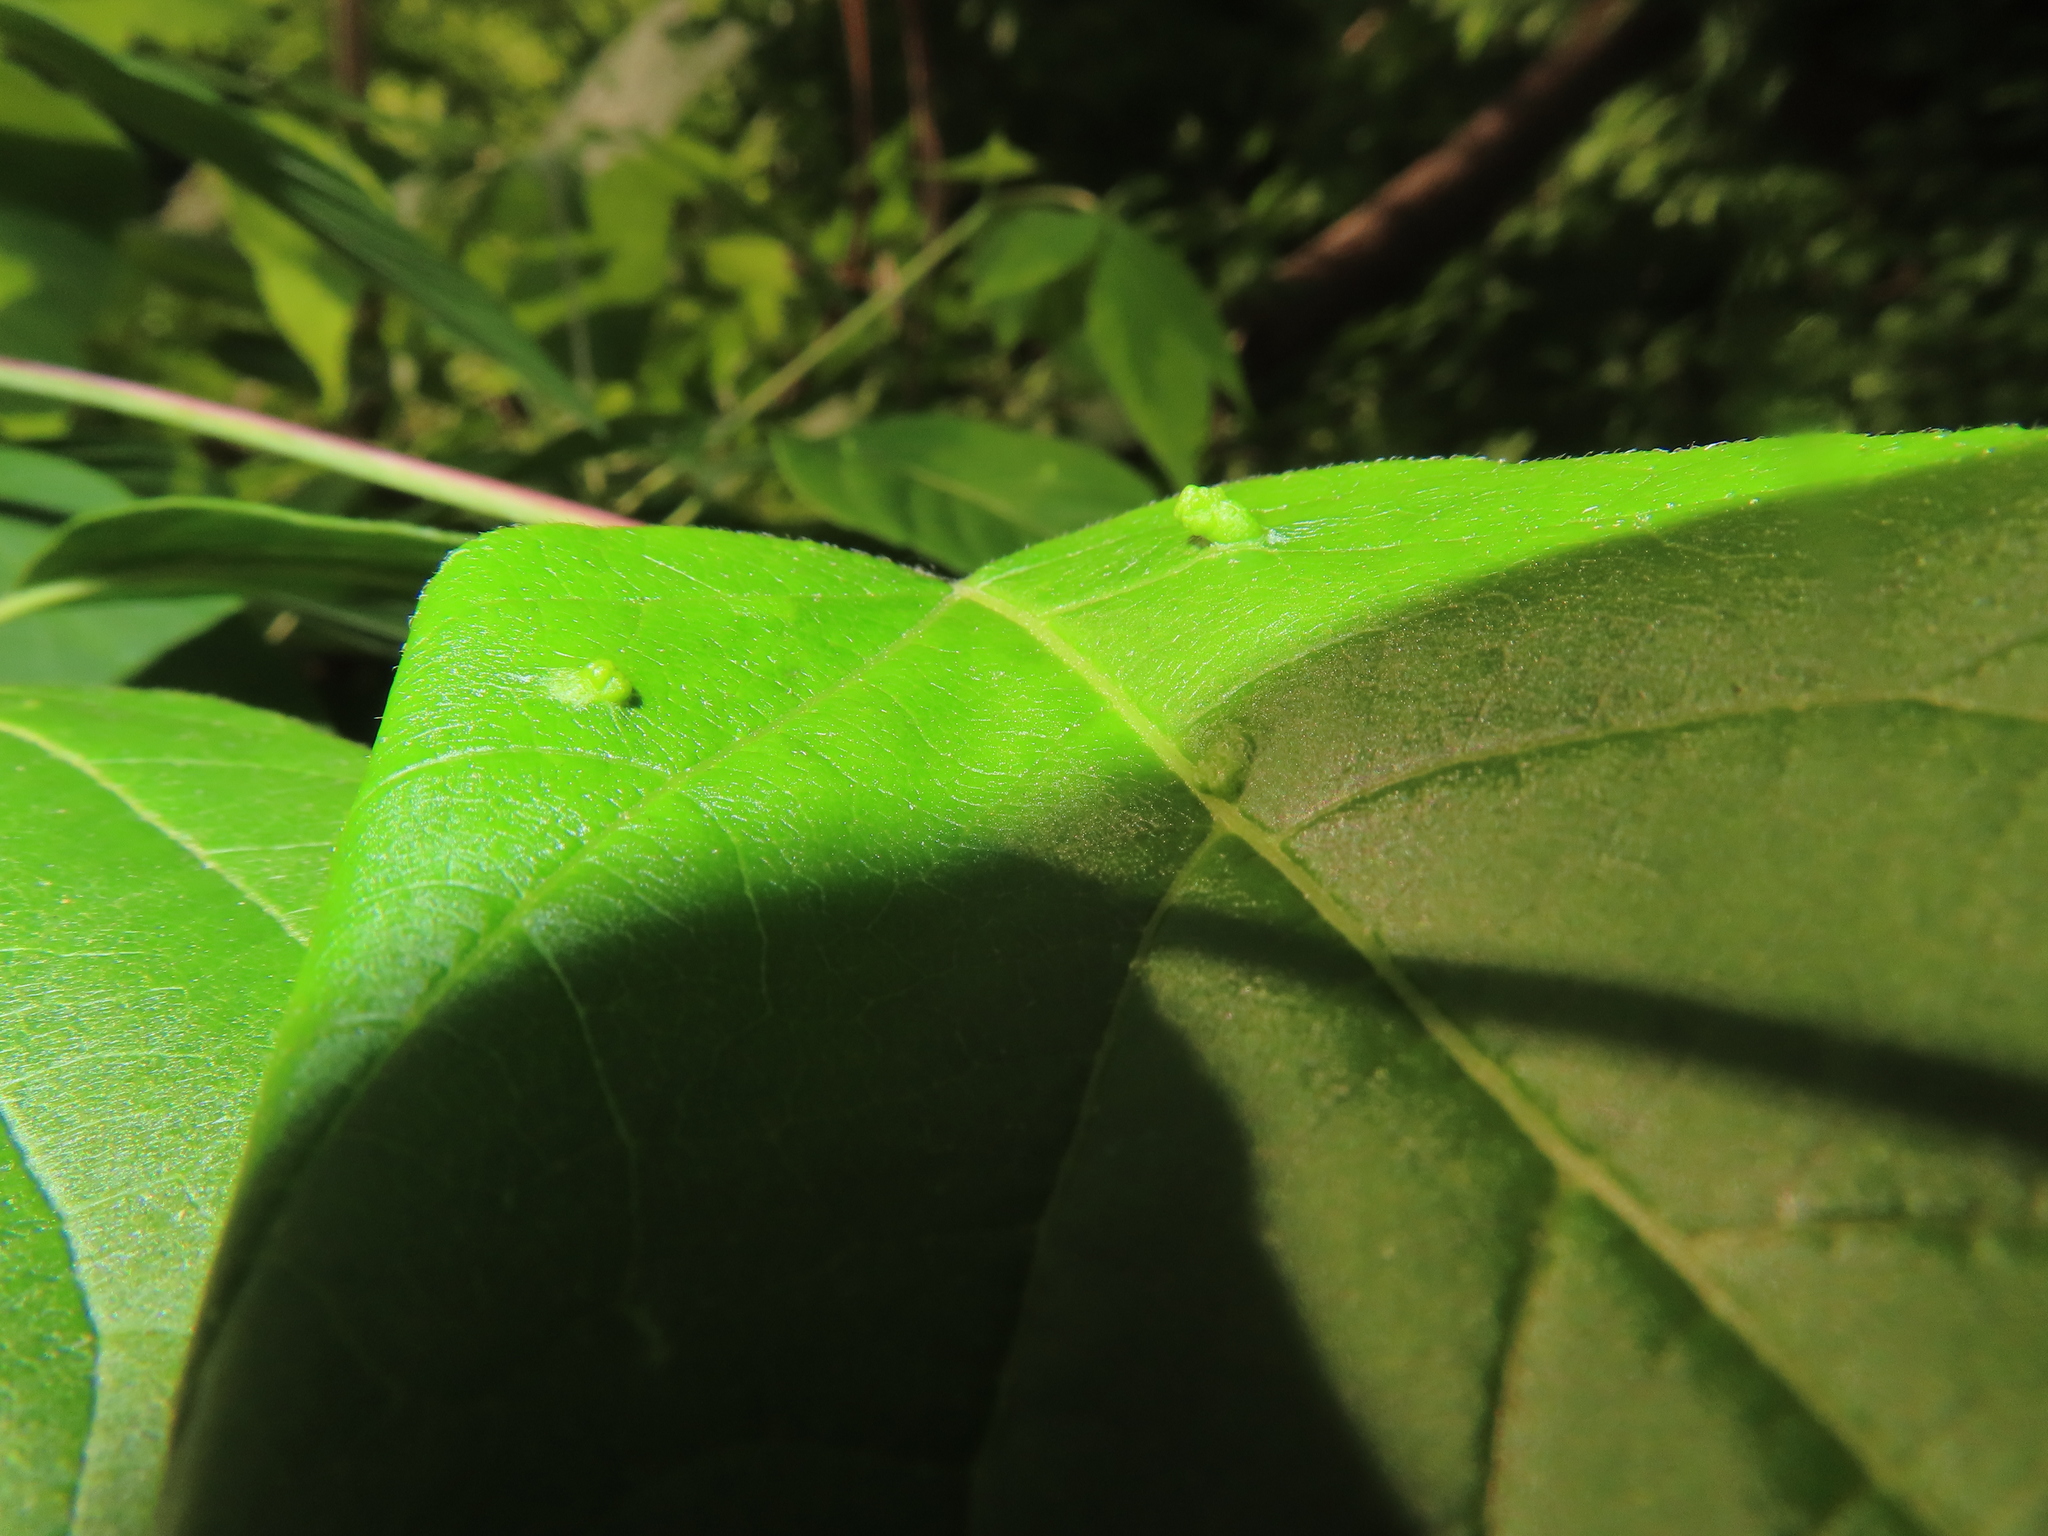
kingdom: Plantae
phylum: Tracheophyta
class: Magnoliopsida
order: Sapindales
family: Sapindaceae
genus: Acer
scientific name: Acer negundo
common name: Ashleaf maple
